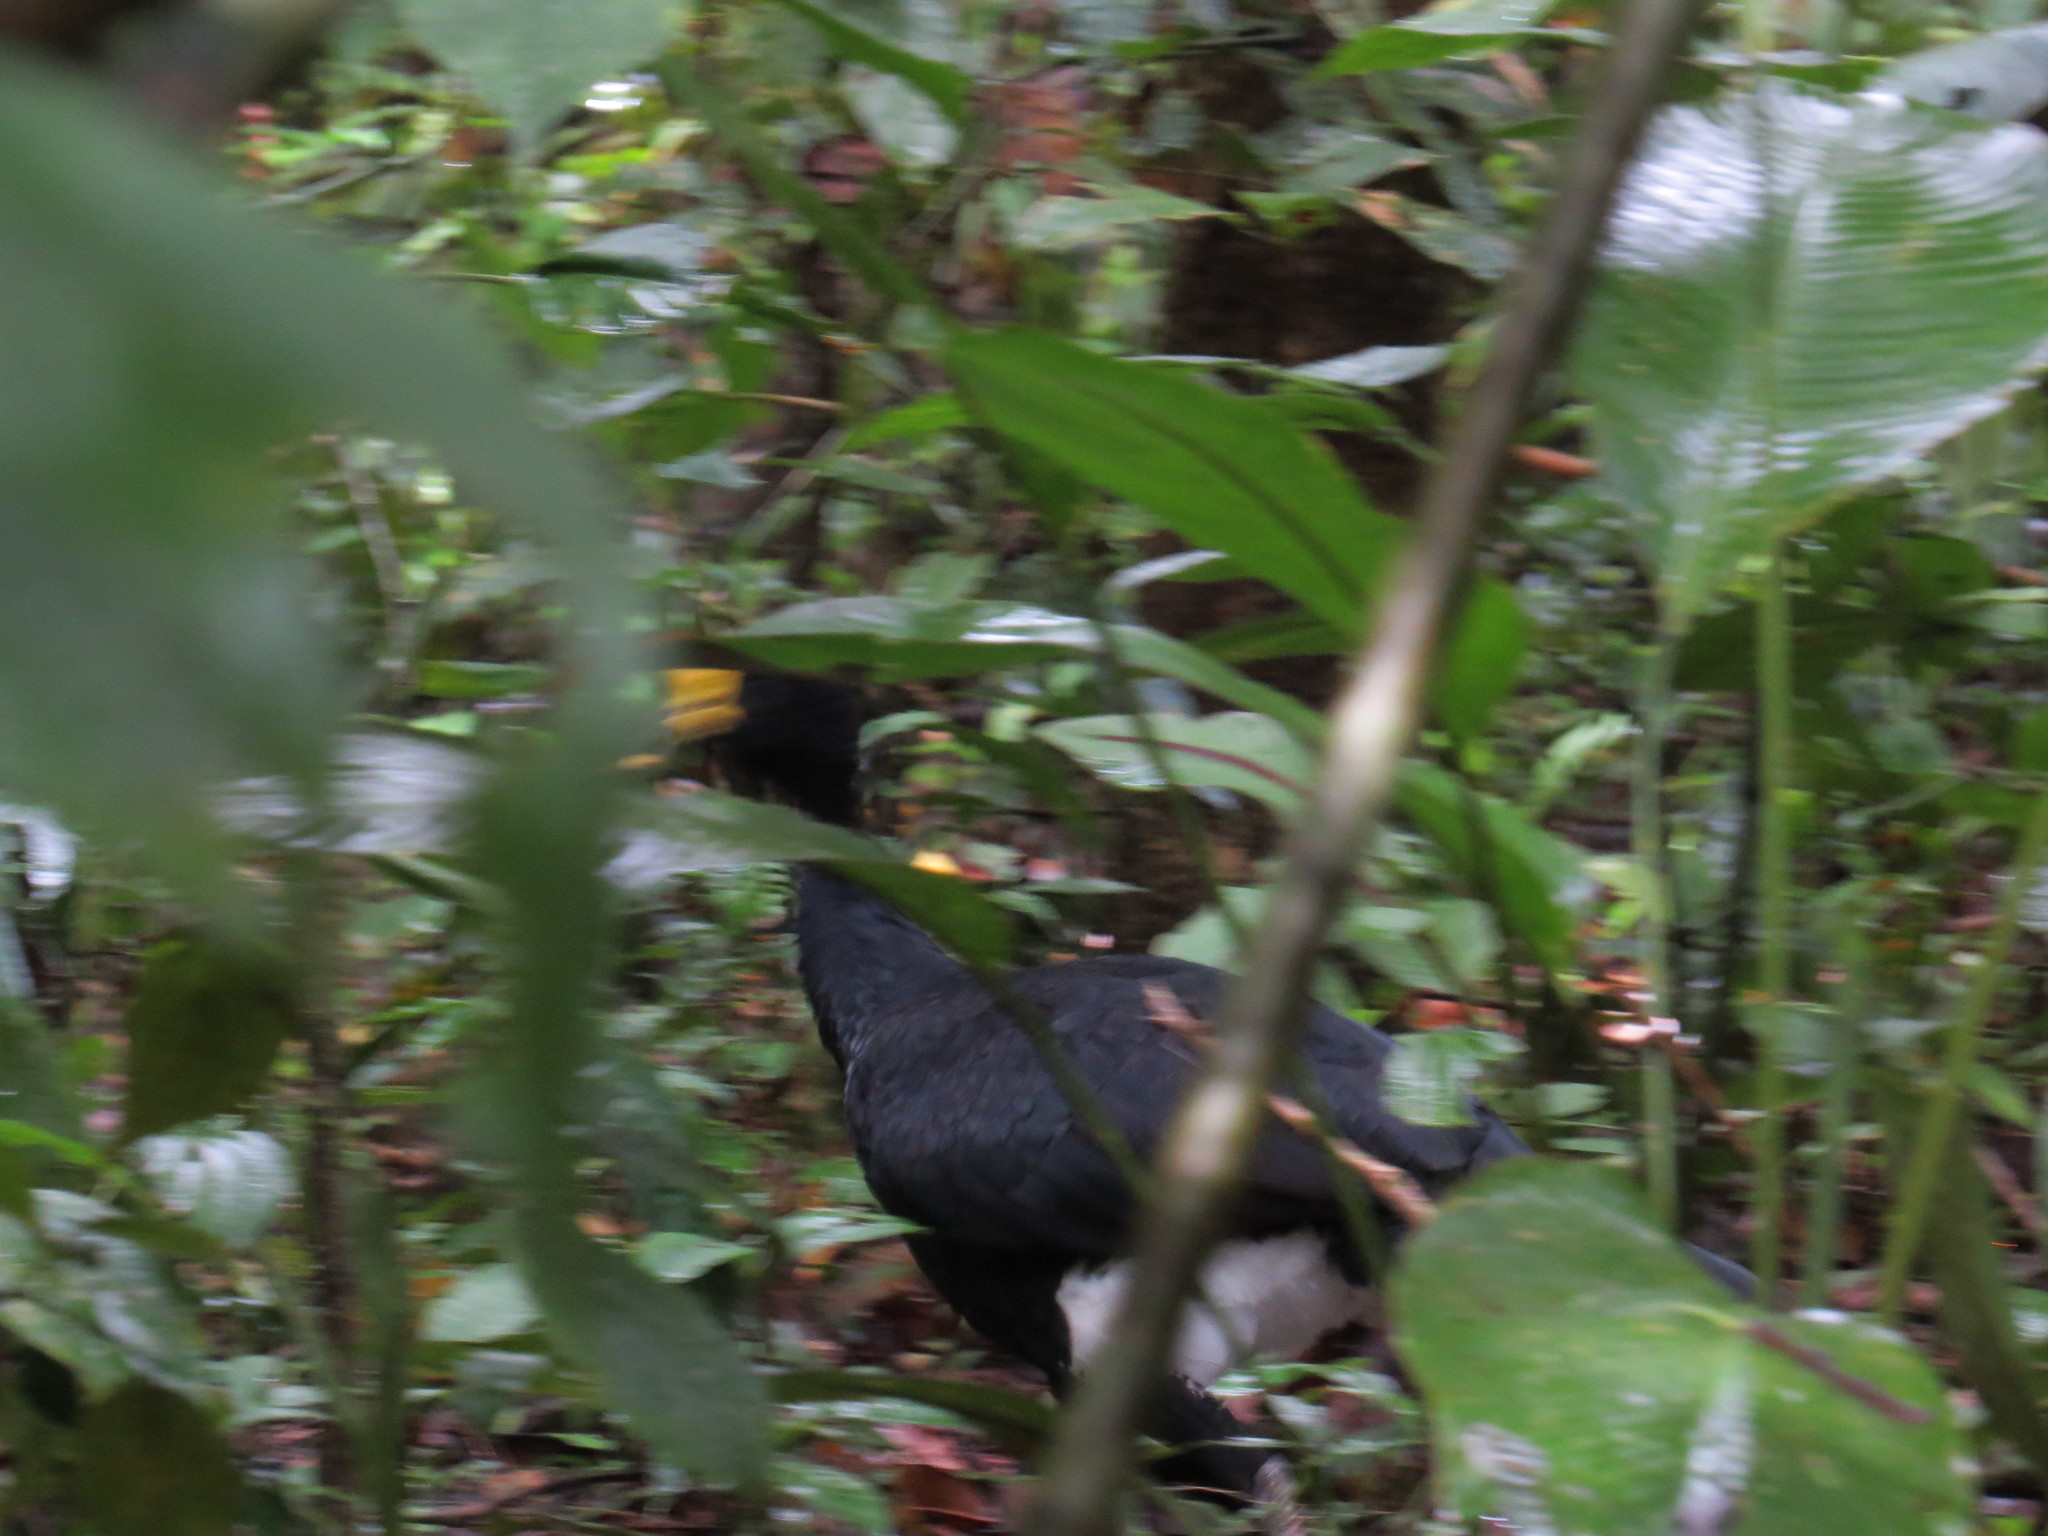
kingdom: Animalia
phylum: Chordata
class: Aves
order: Galliformes
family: Cracidae
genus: Crax
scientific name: Crax rubra
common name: Great curassow
